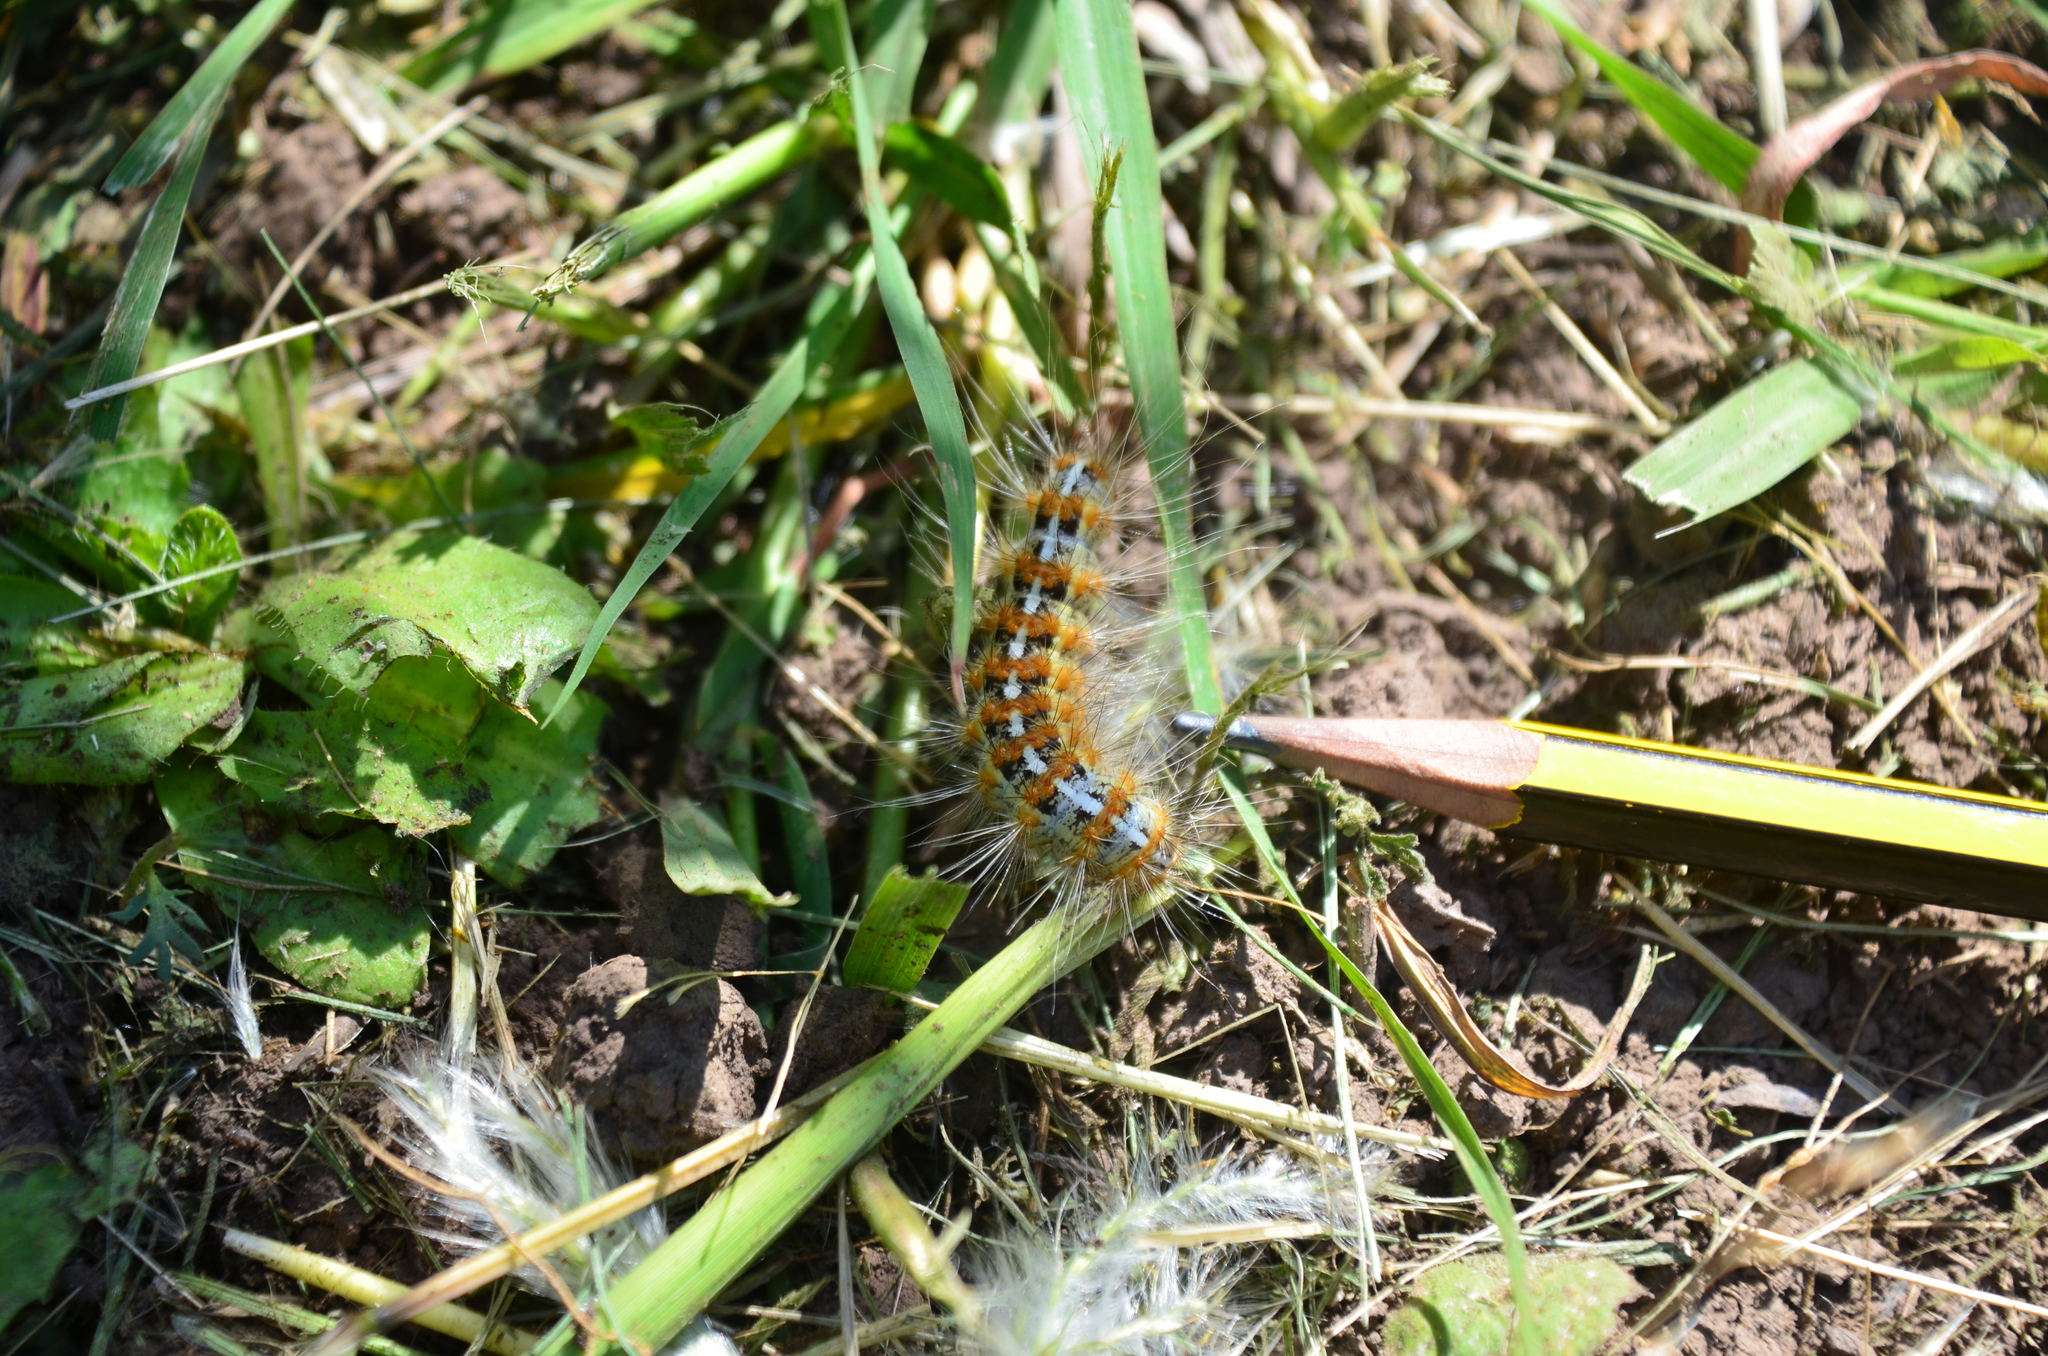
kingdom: Animalia
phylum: Arthropoda
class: Insecta
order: Lepidoptera
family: Erebidae
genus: Paracles
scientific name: Paracles deserticola
